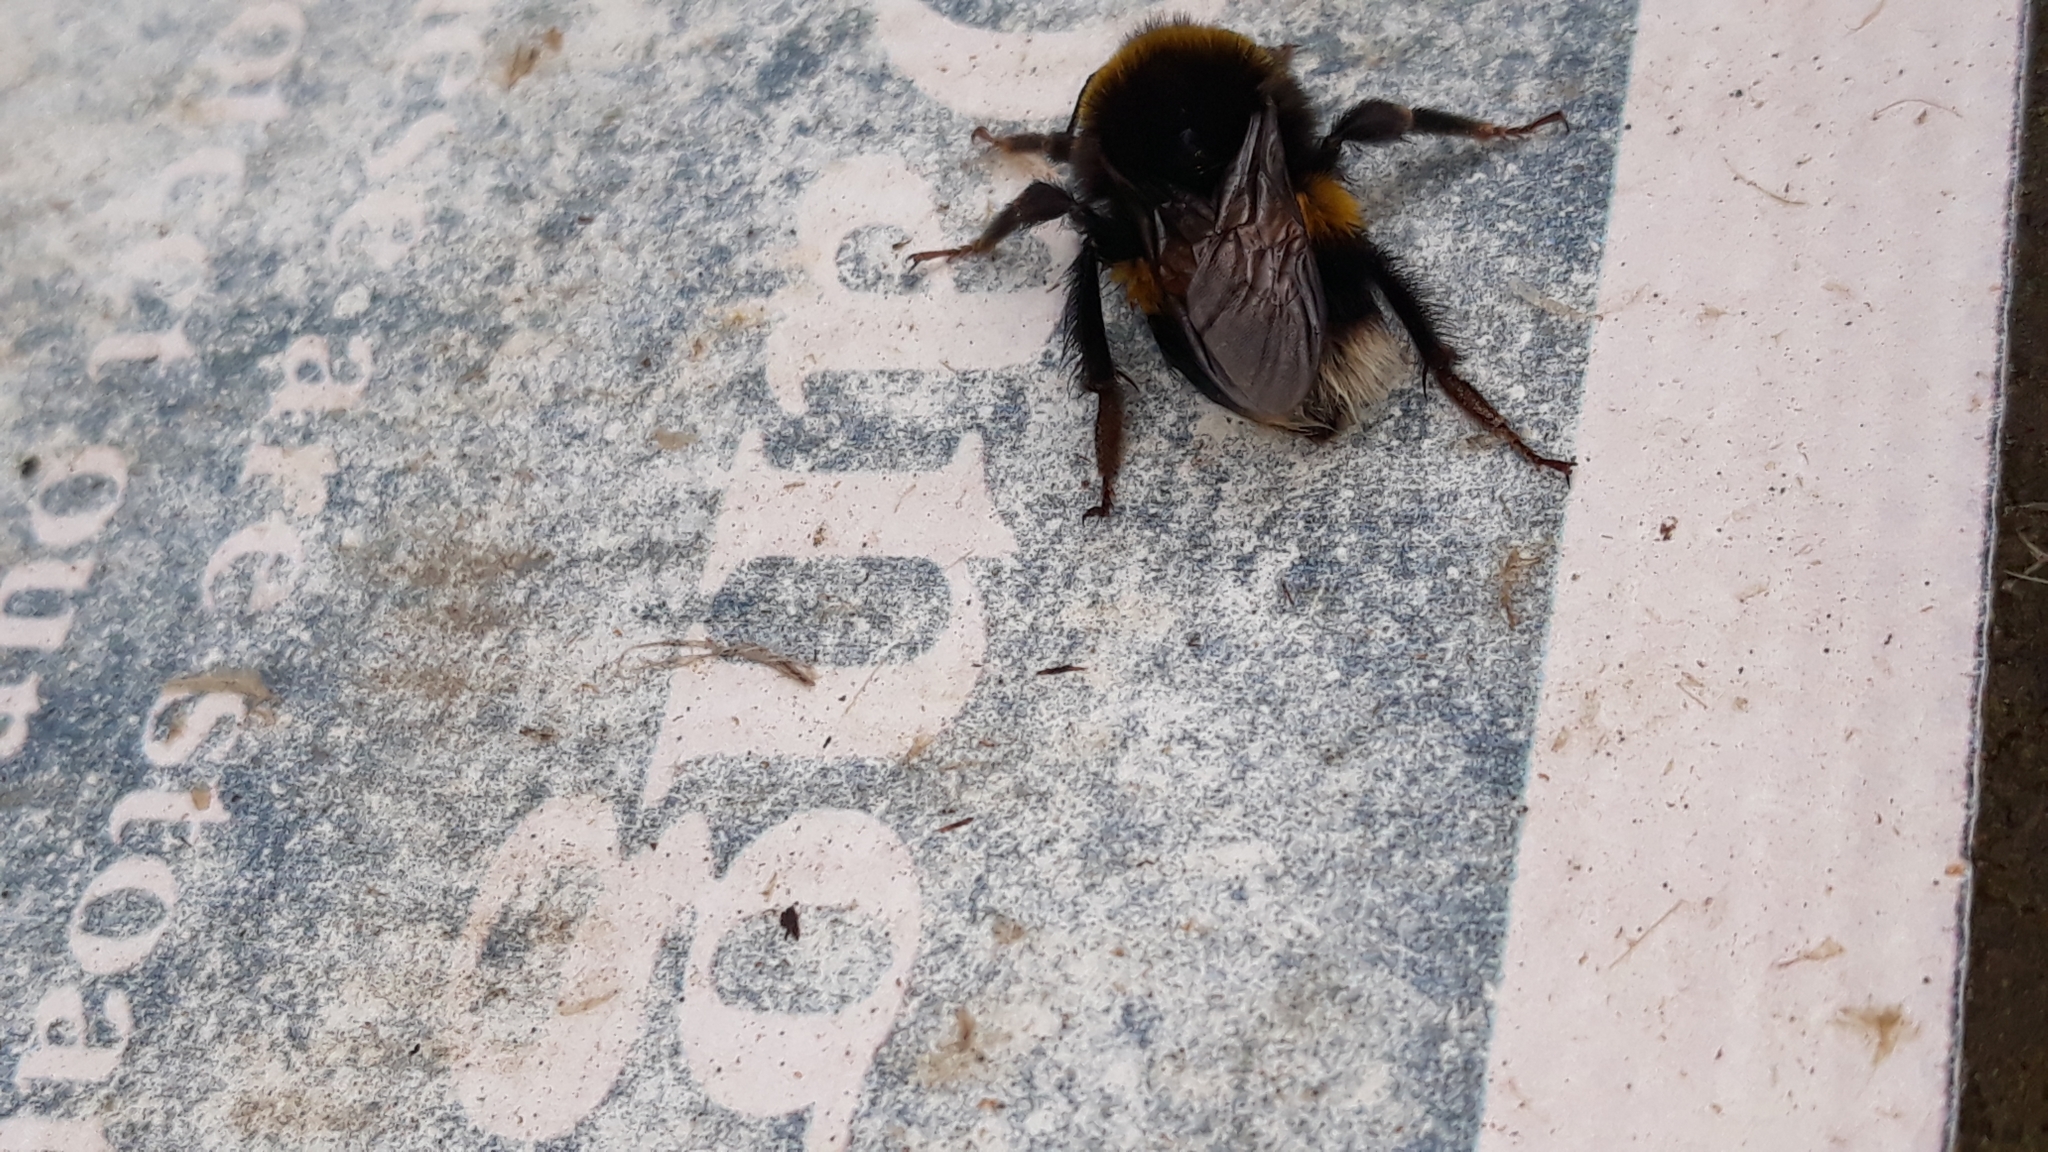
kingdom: Animalia
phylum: Arthropoda
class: Insecta
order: Hymenoptera
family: Apidae
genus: Bombus
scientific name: Bombus terrestris
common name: Buff-tailed bumblebee
